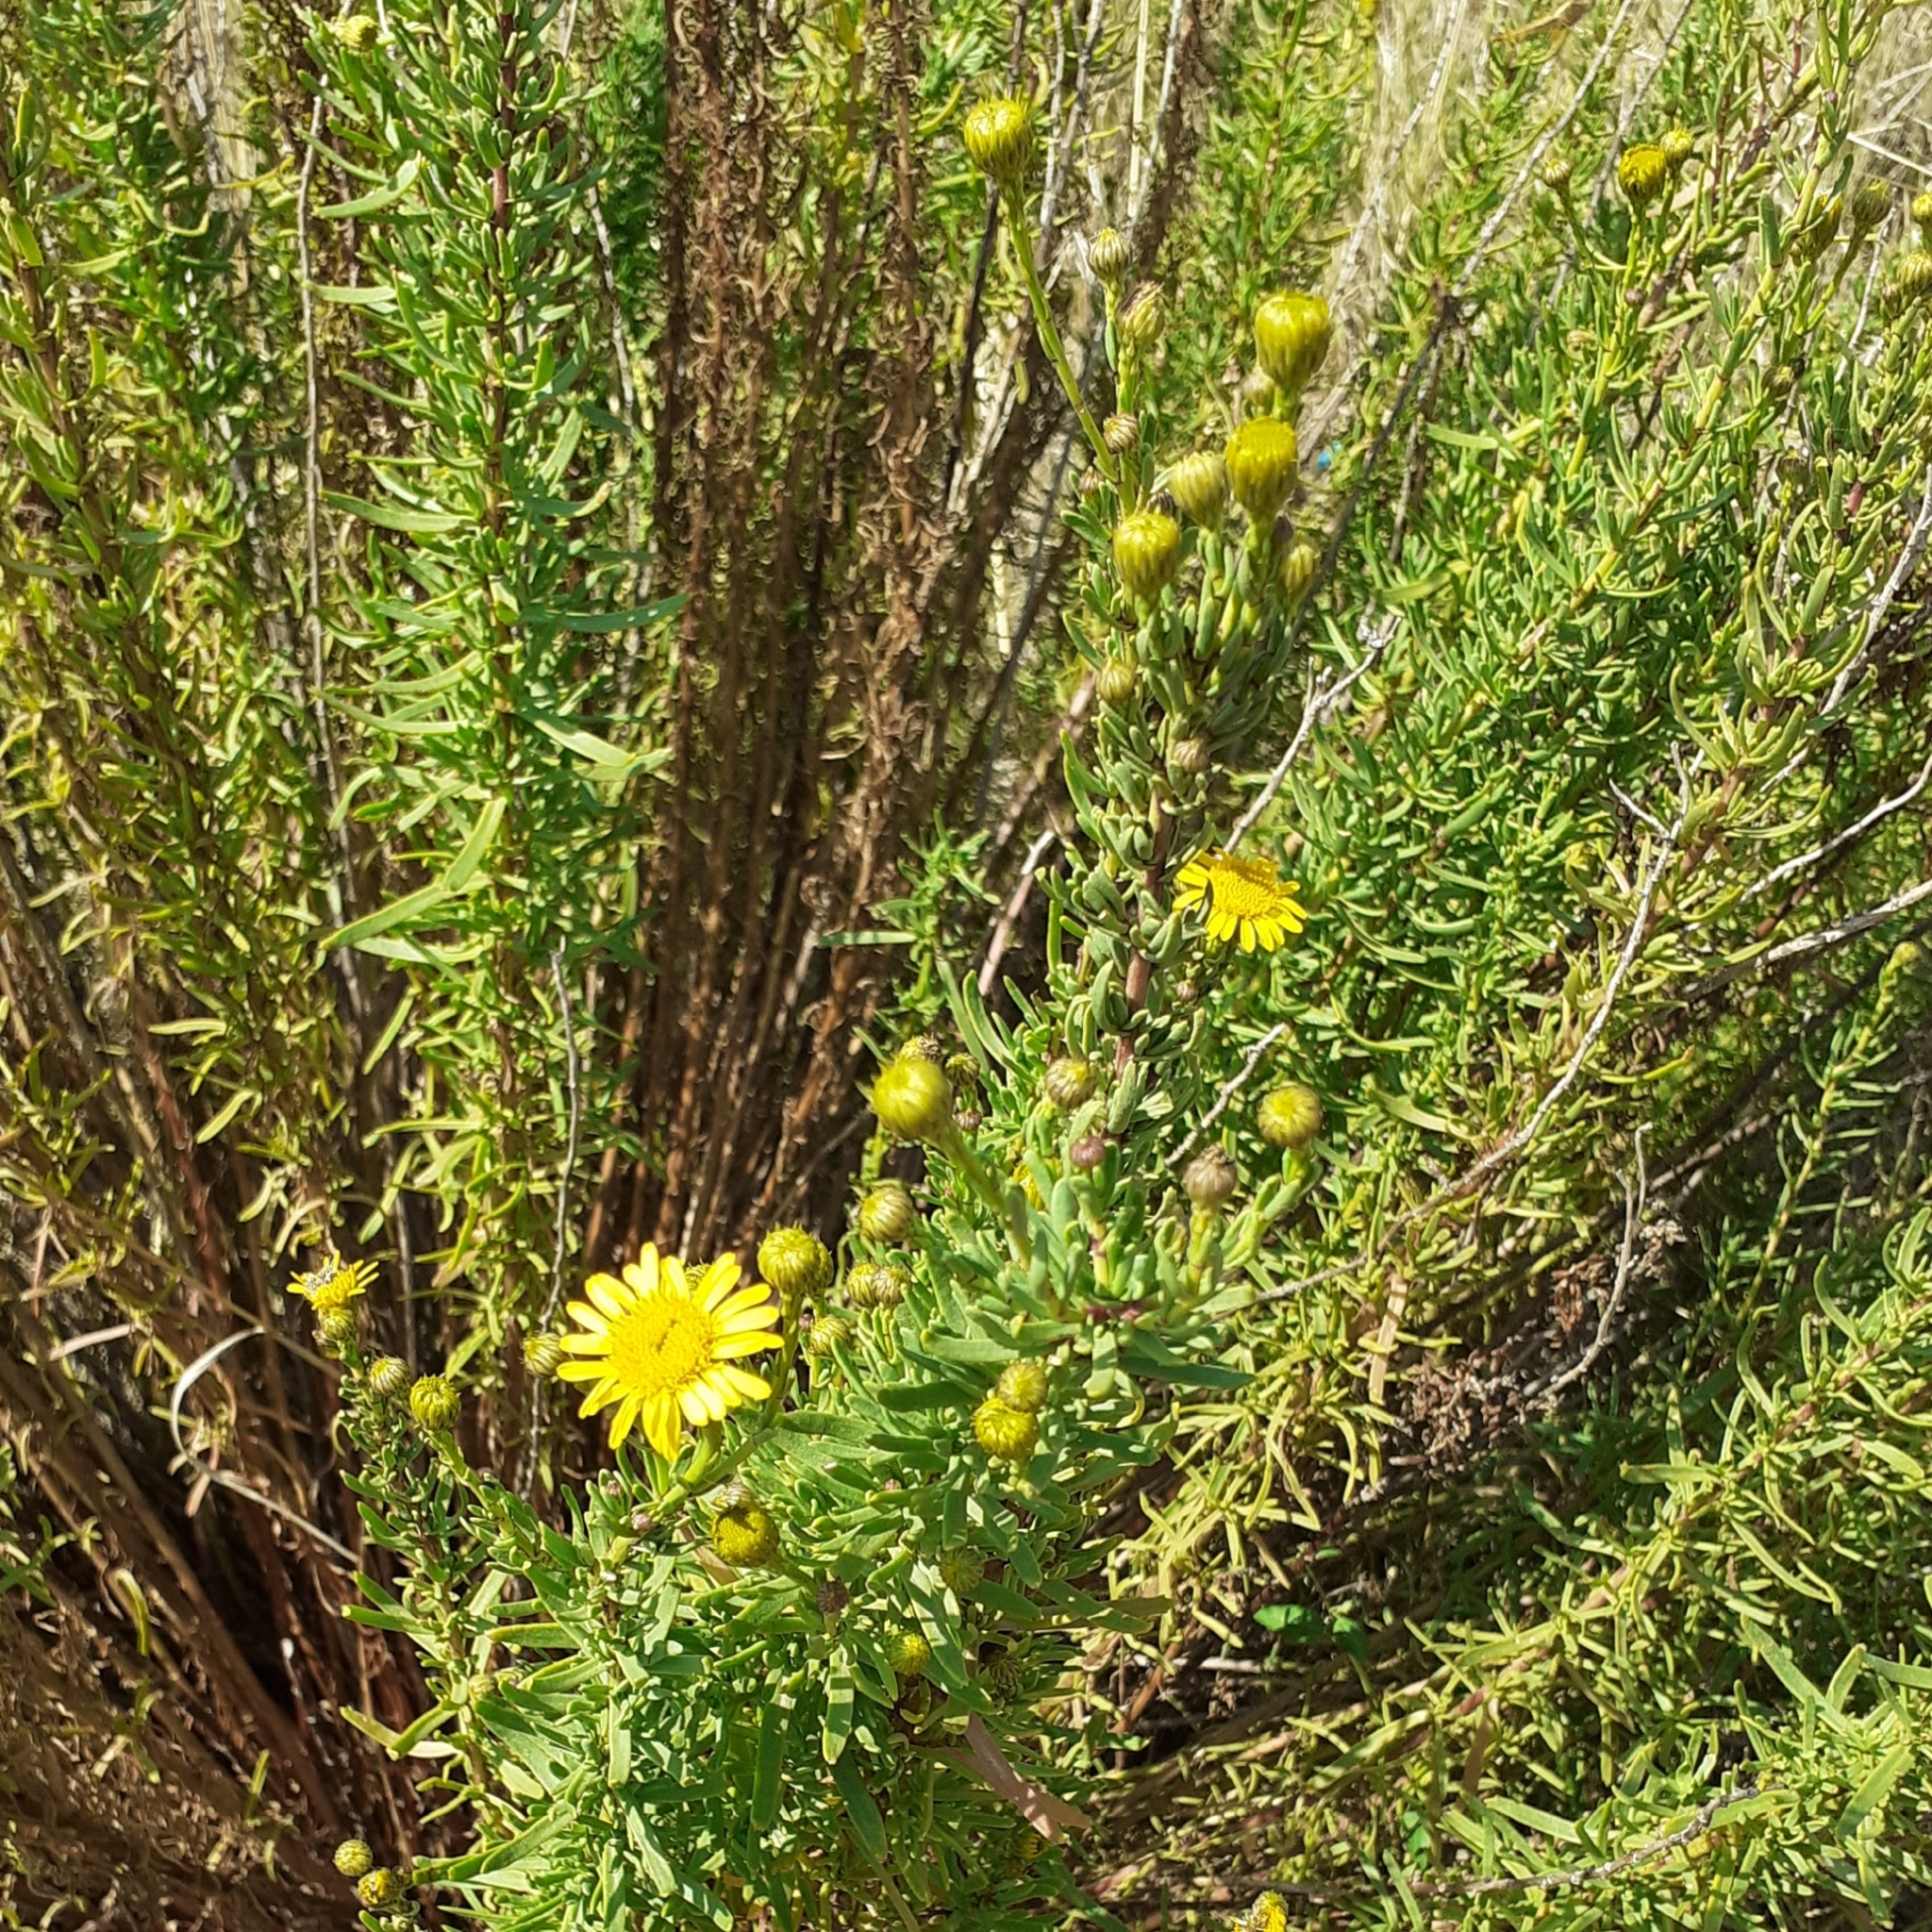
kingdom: Plantae
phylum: Tracheophyta
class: Magnoliopsida
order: Asterales
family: Asteraceae
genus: Limbarda
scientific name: Limbarda crithmoides
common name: Golden samphire
